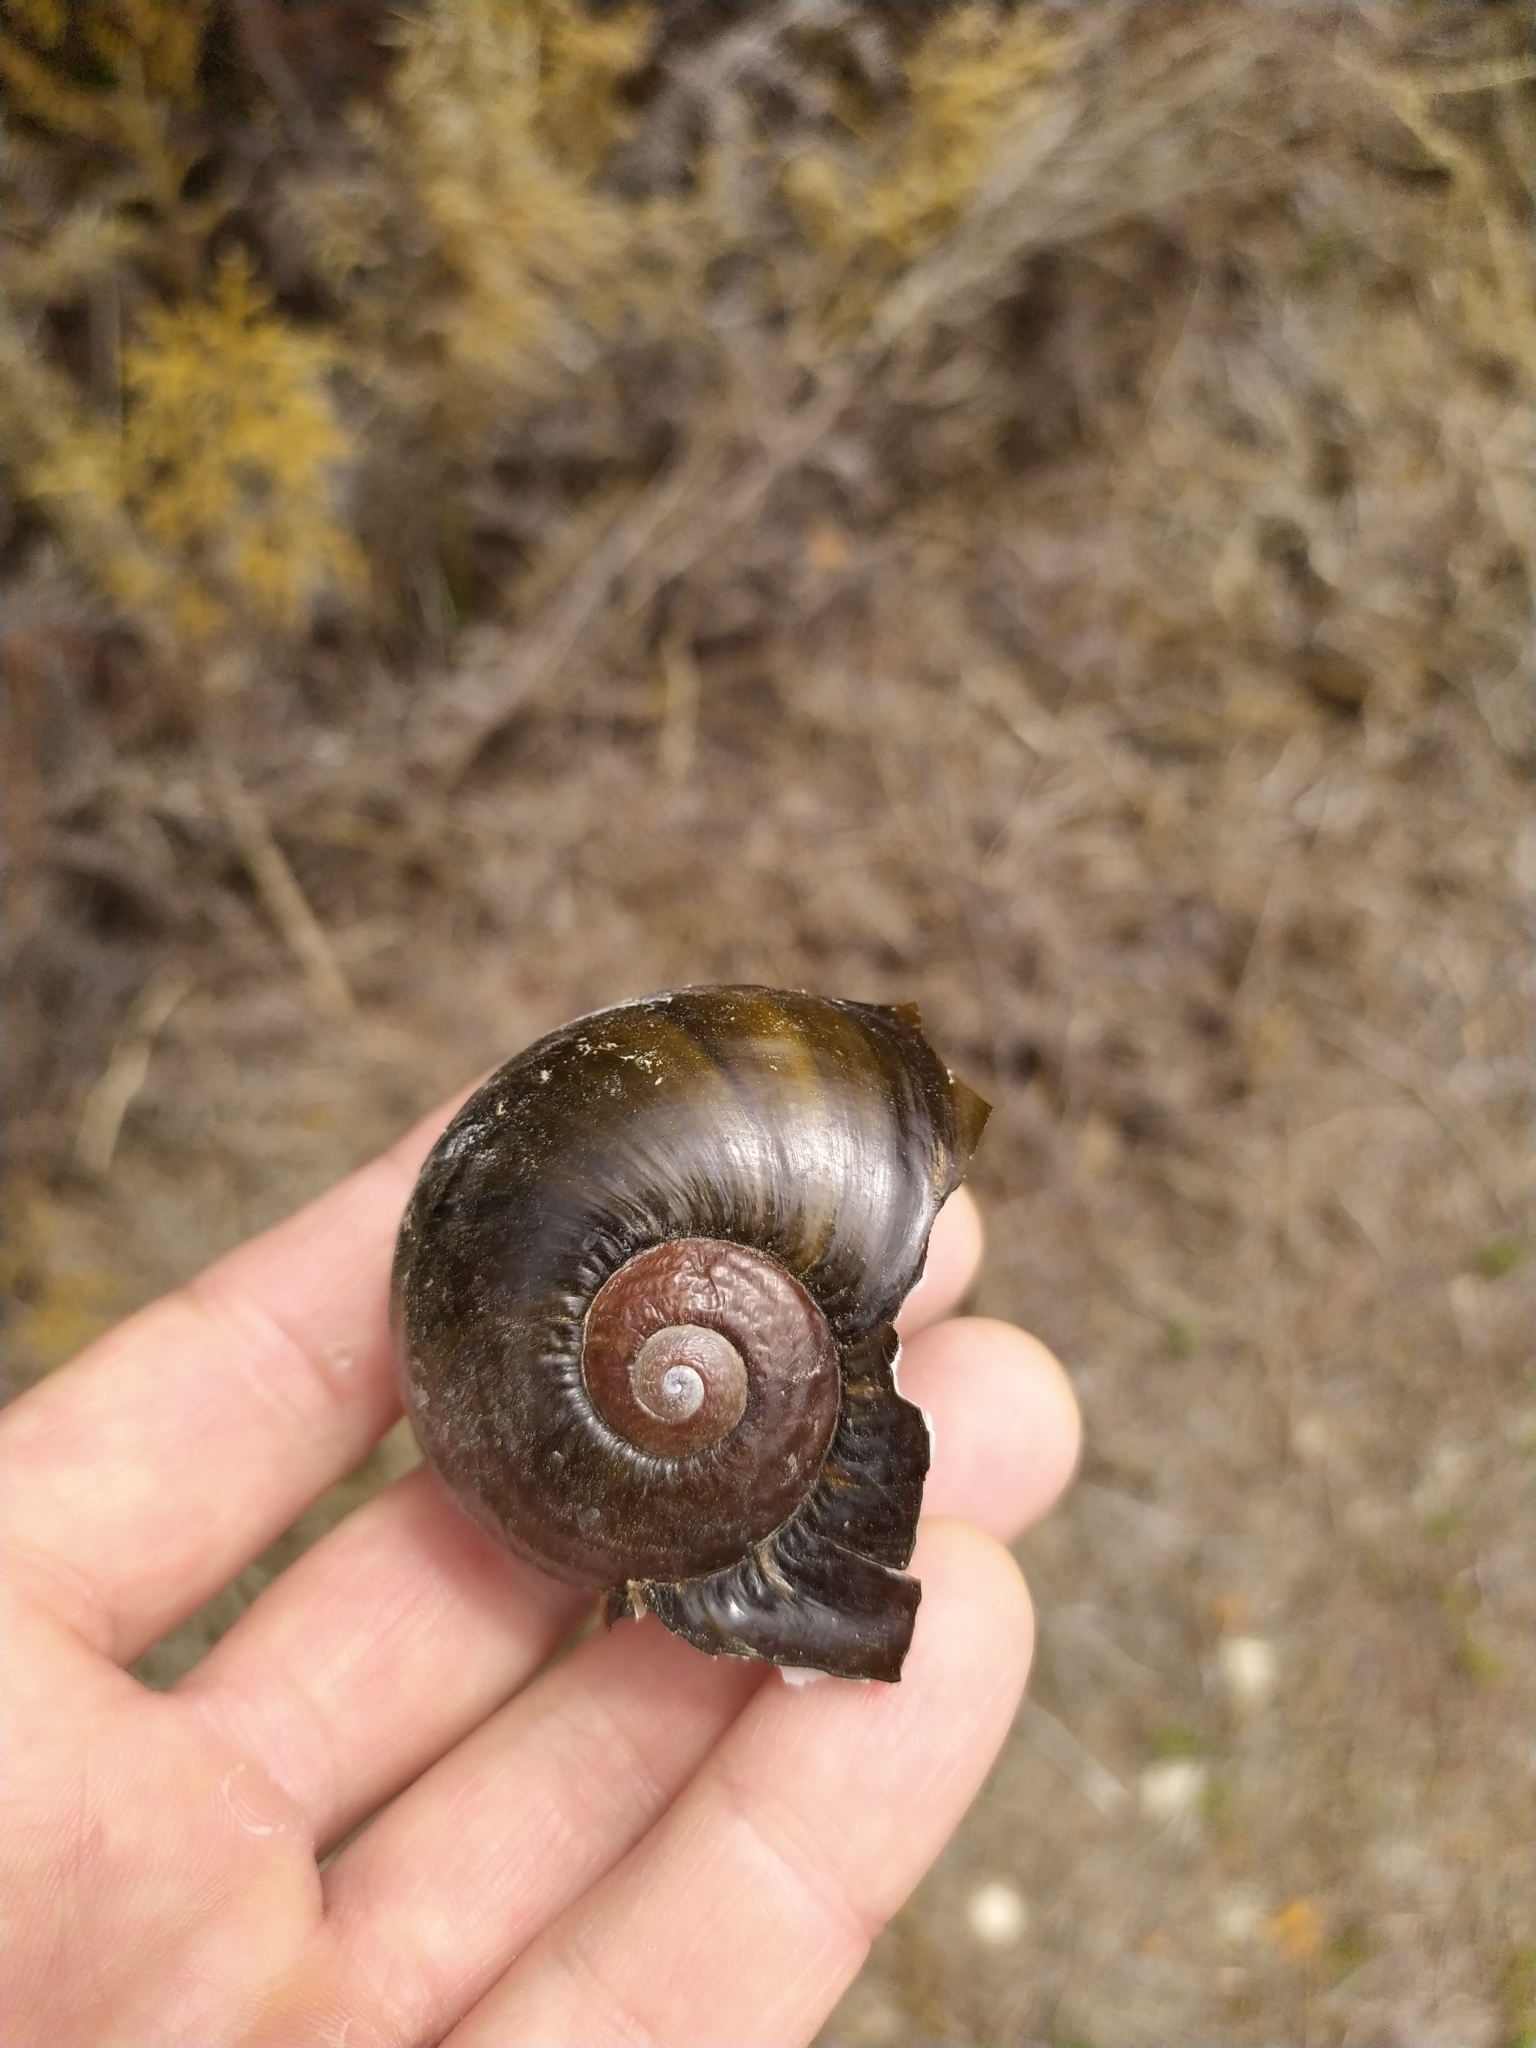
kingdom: Animalia
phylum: Mollusca
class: Gastropoda
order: Stylommatophora
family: Rhytididae
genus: Paryphanta
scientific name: Paryphanta busbyi
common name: Kauri snail
